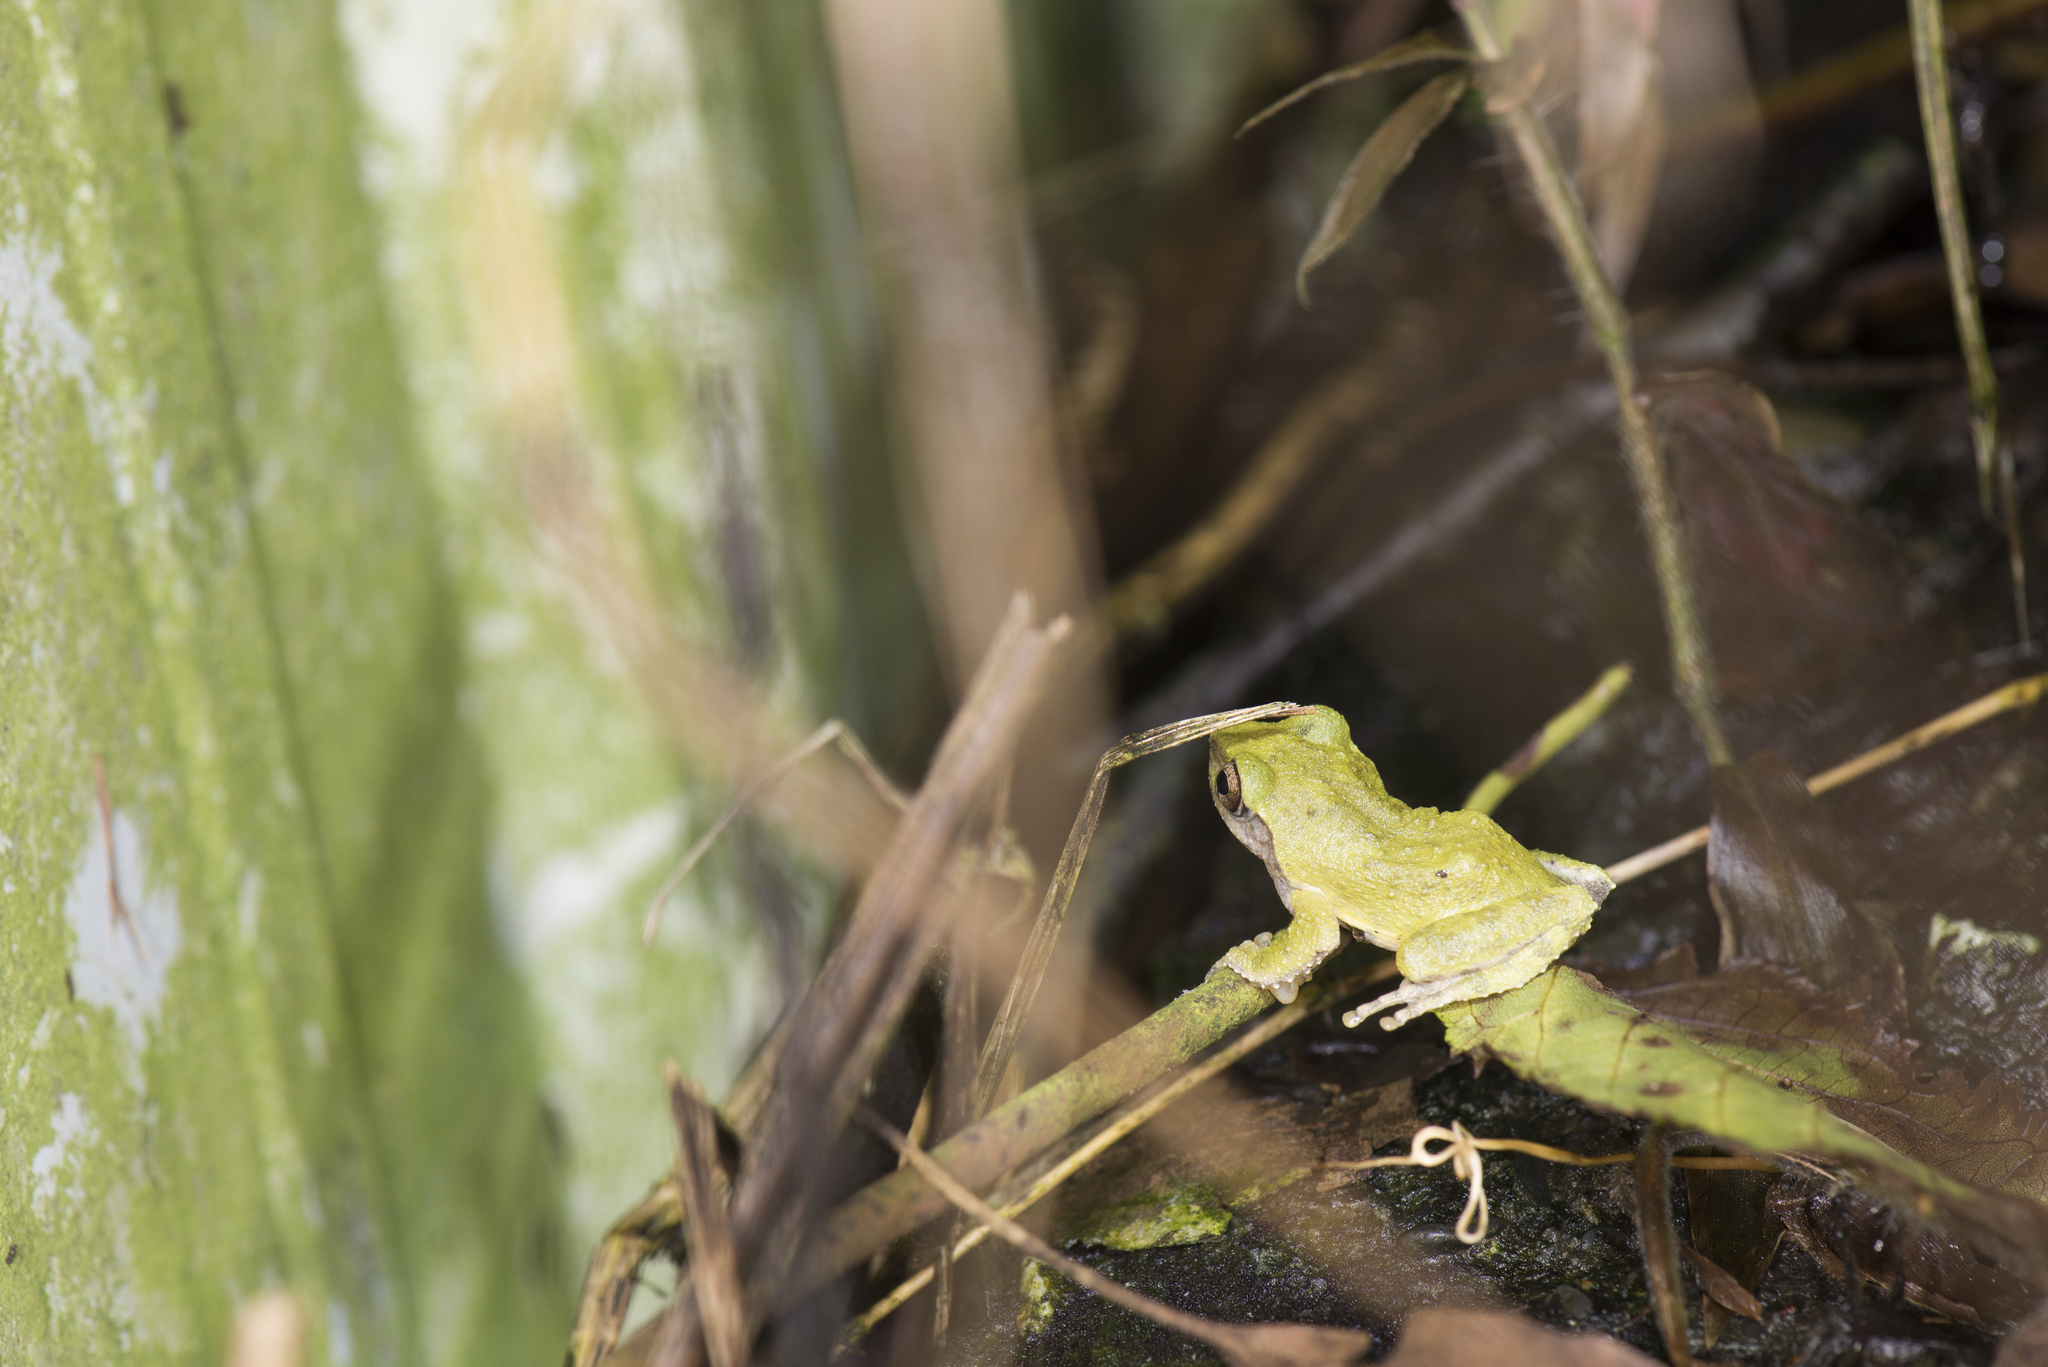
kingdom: Animalia
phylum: Chordata
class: Amphibia
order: Anura
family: Rhacophoridae
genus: Kurixalus
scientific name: Kurixalus eiffingeri
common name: Eiffinger’s treefrog
